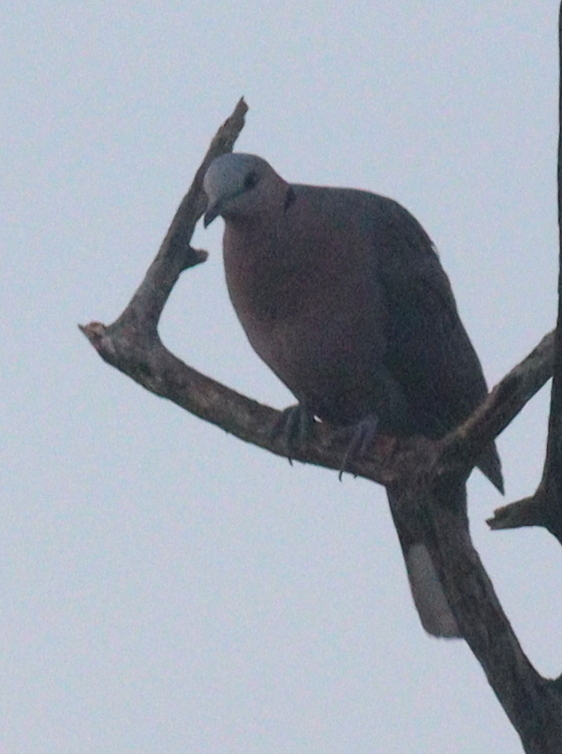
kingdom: Animalia
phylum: Chordata
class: Aves
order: Columbiformes
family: Columbidae
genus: Streptopelia
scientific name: Streptopelia semitorquata
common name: Red-eyed dove
